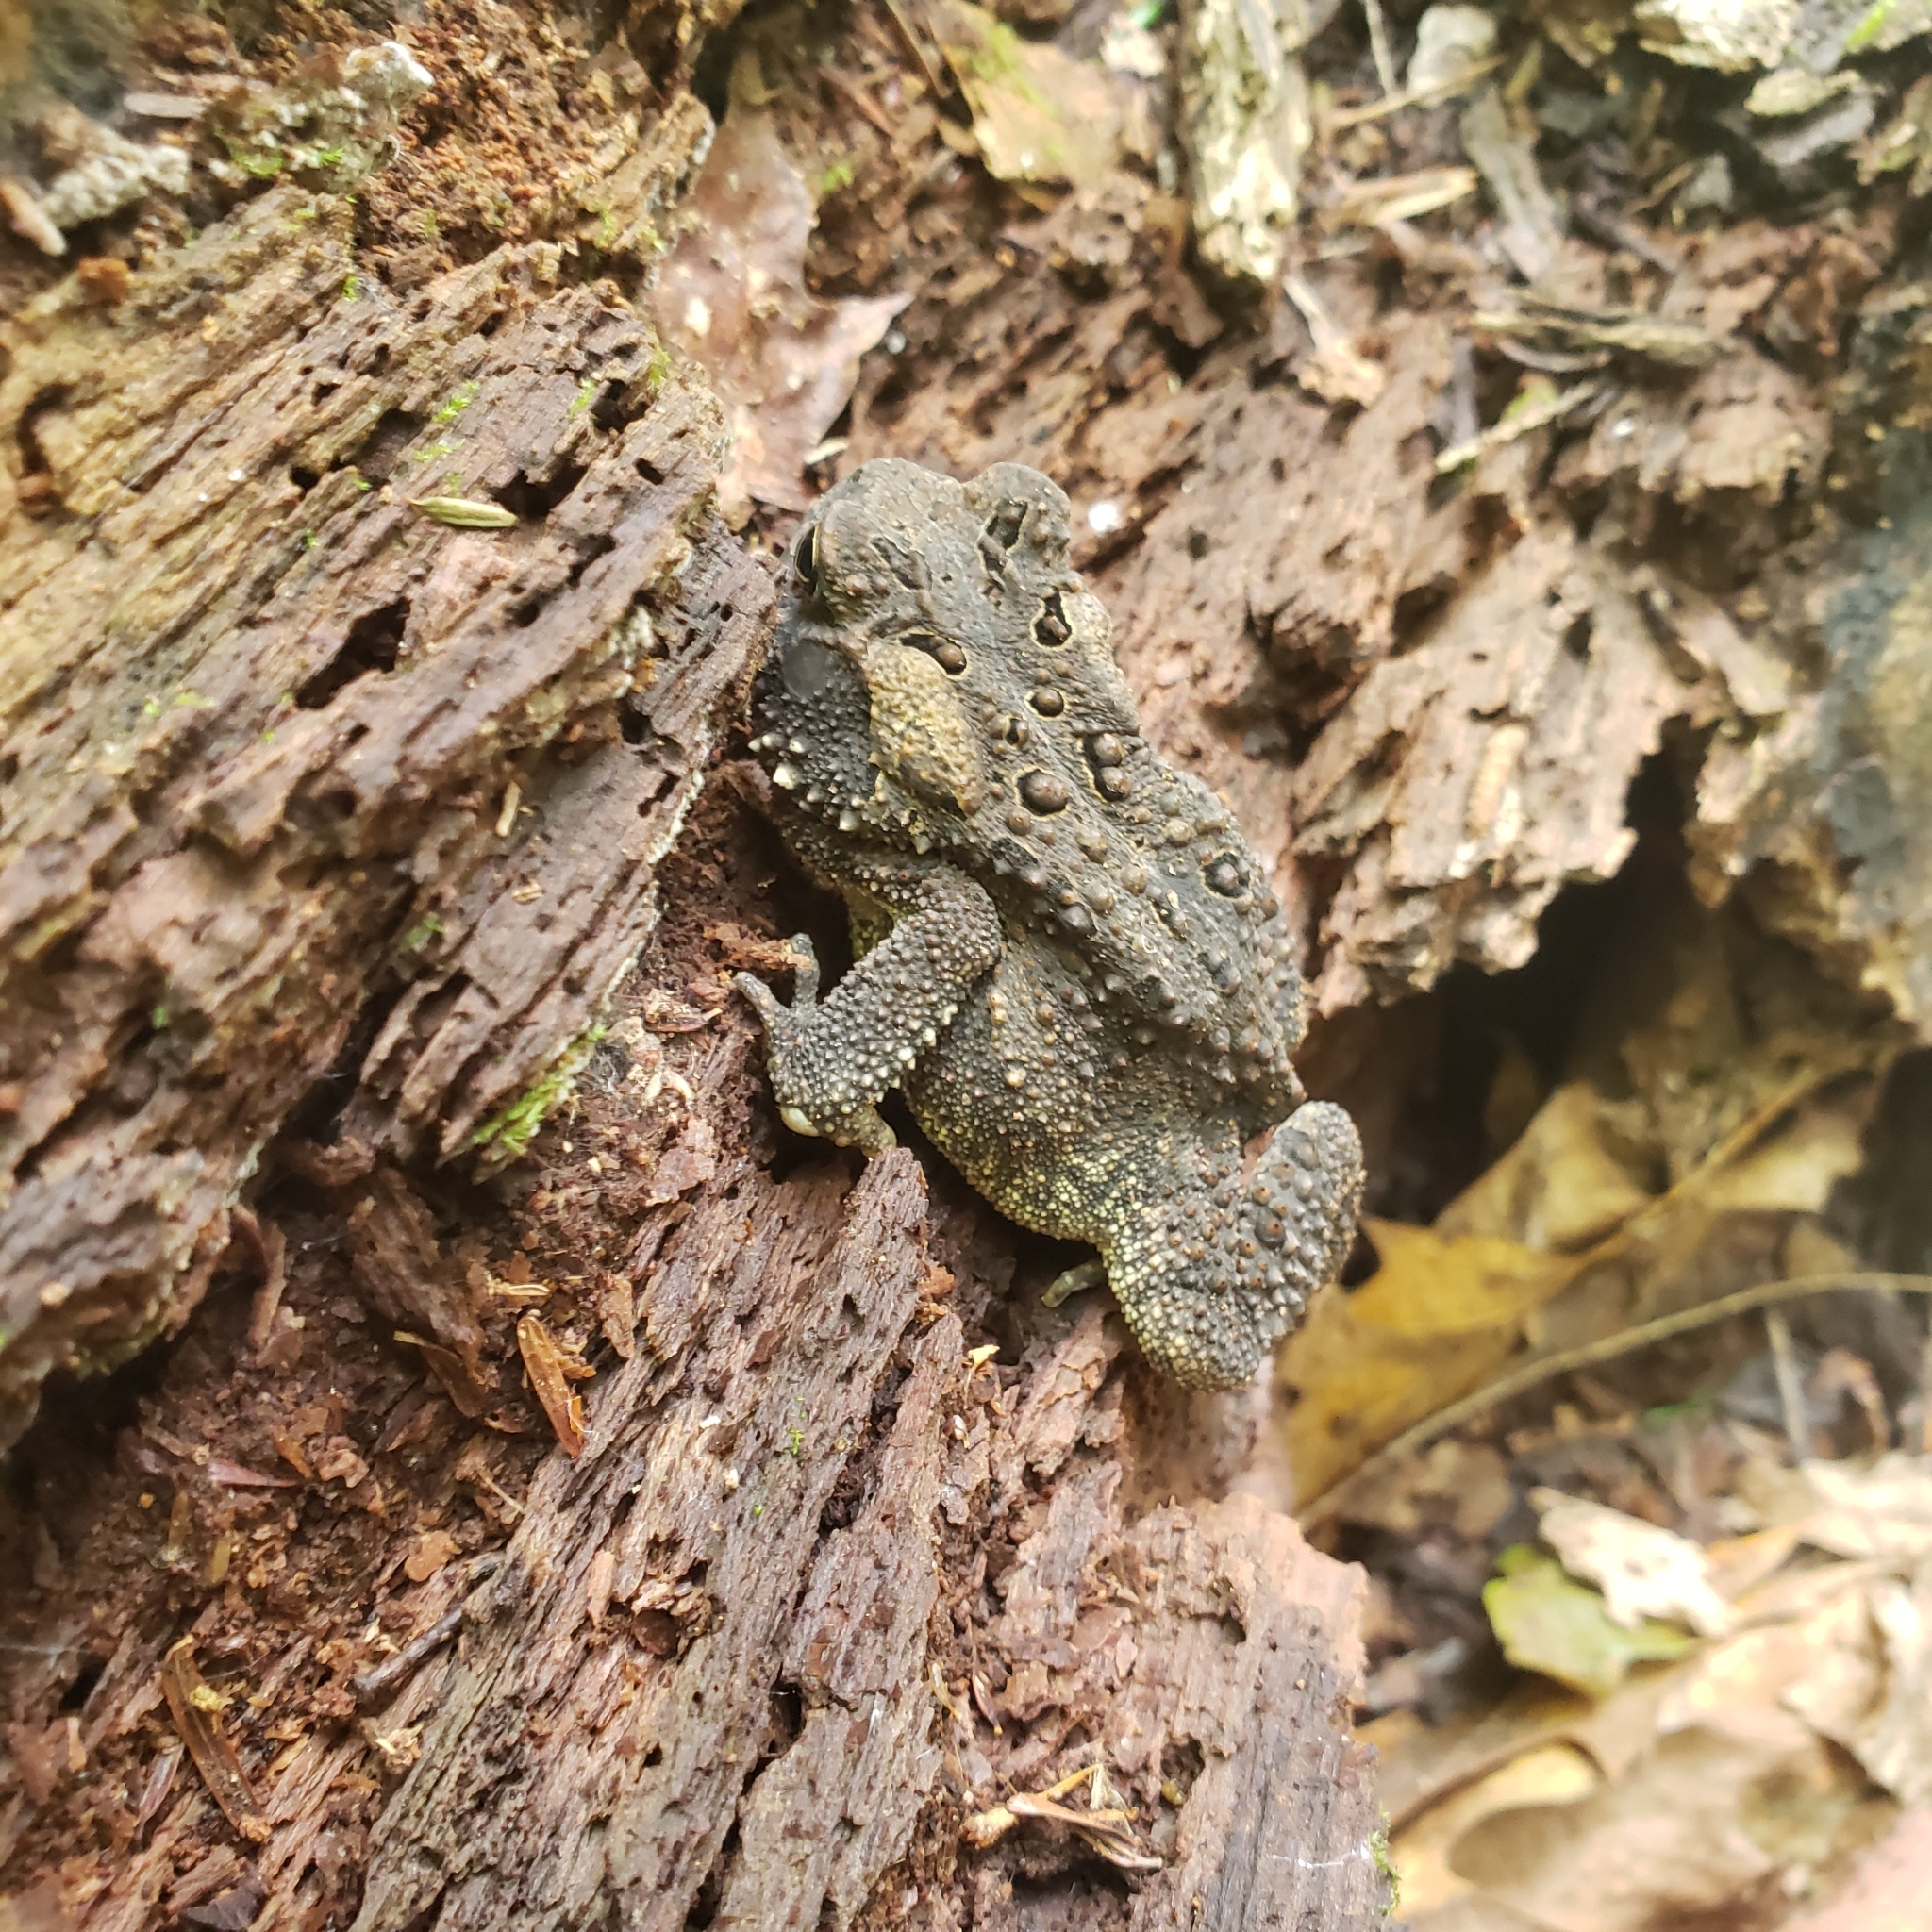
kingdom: Animalia
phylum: Chordata
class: Amphibia
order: Anura
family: Bufonidae
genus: Anaxyrus
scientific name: Anaxyrus americanus
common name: American toad
